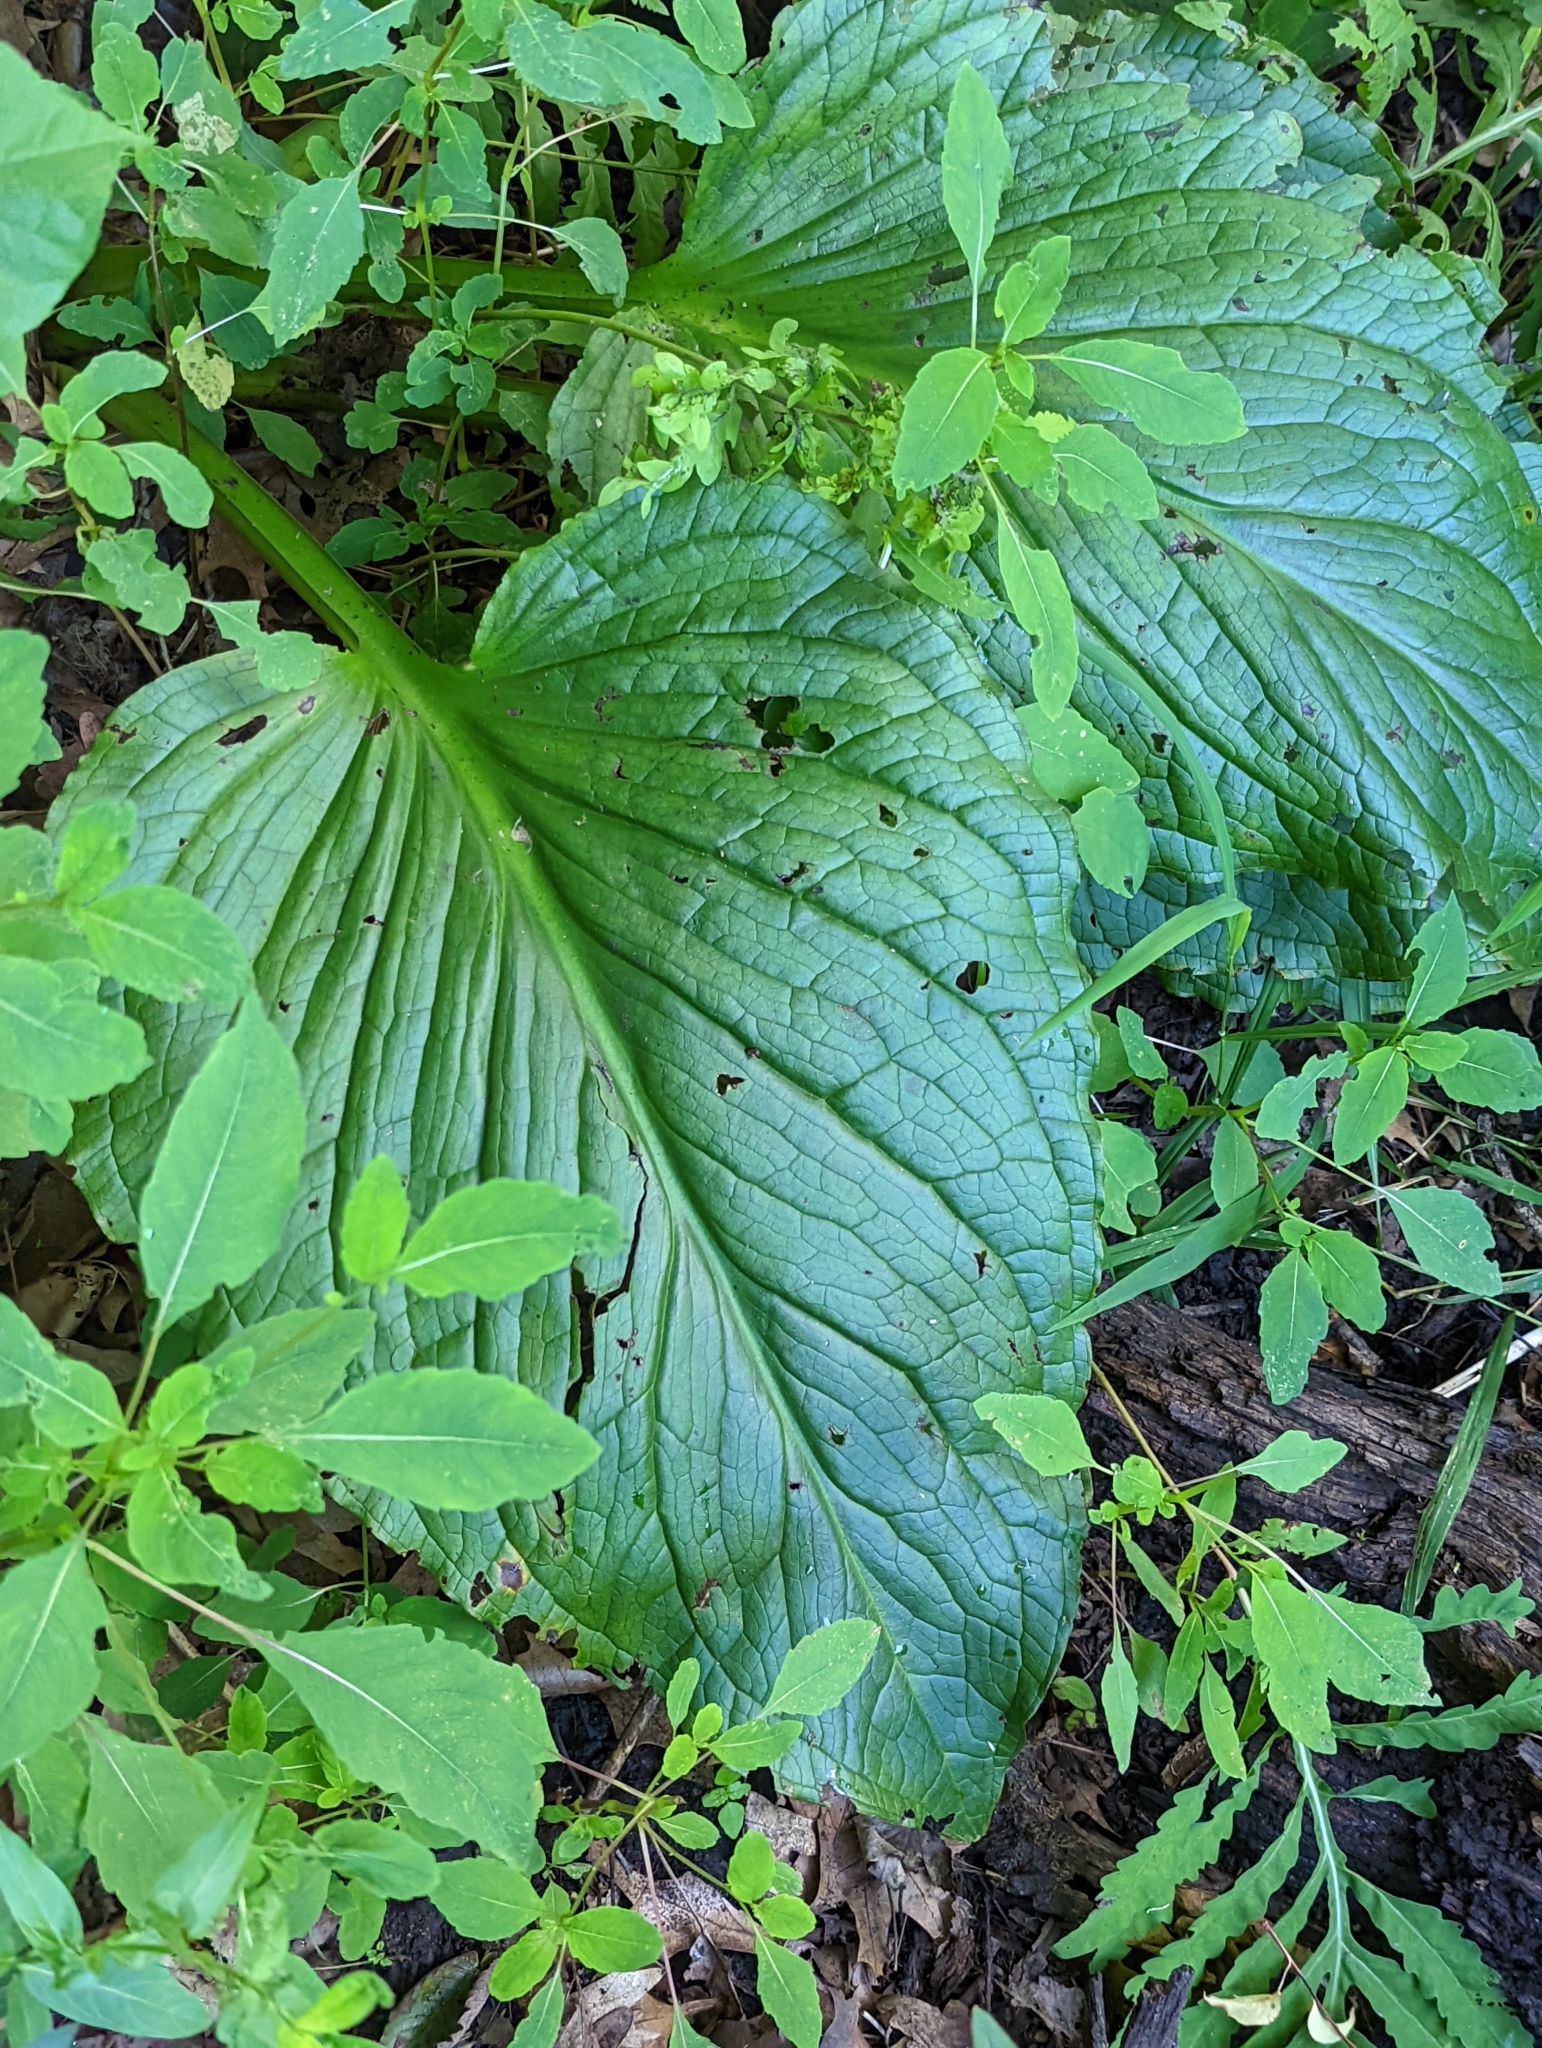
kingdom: Plantae
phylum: Tracheophyta
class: Liliopsida
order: Alismatales
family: Araceae
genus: Symplocarpus
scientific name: Symplocarpus foetidus
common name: Eastern skunk cabbage
